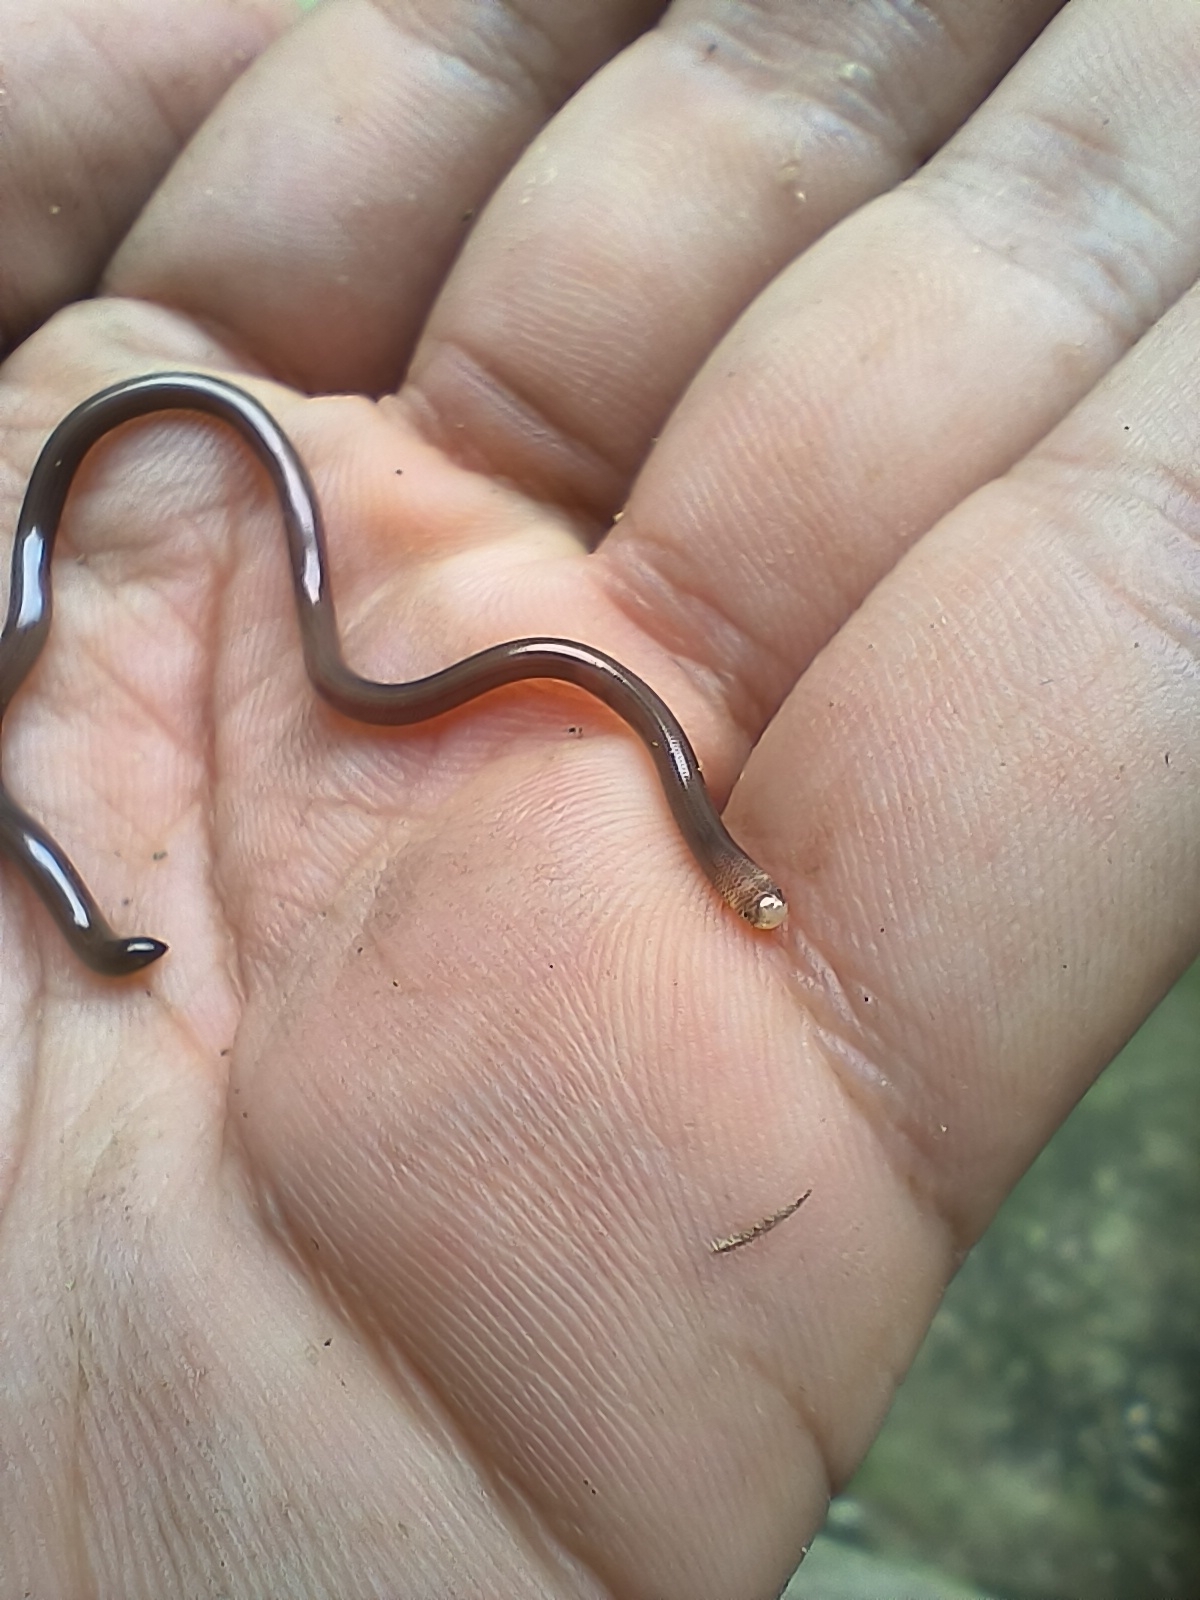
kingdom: Animalia
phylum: Chordata
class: Squamata
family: Anomalepididae
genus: Liotyphlops
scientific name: Liotyphlops albirostris
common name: Whitenose blind snake
